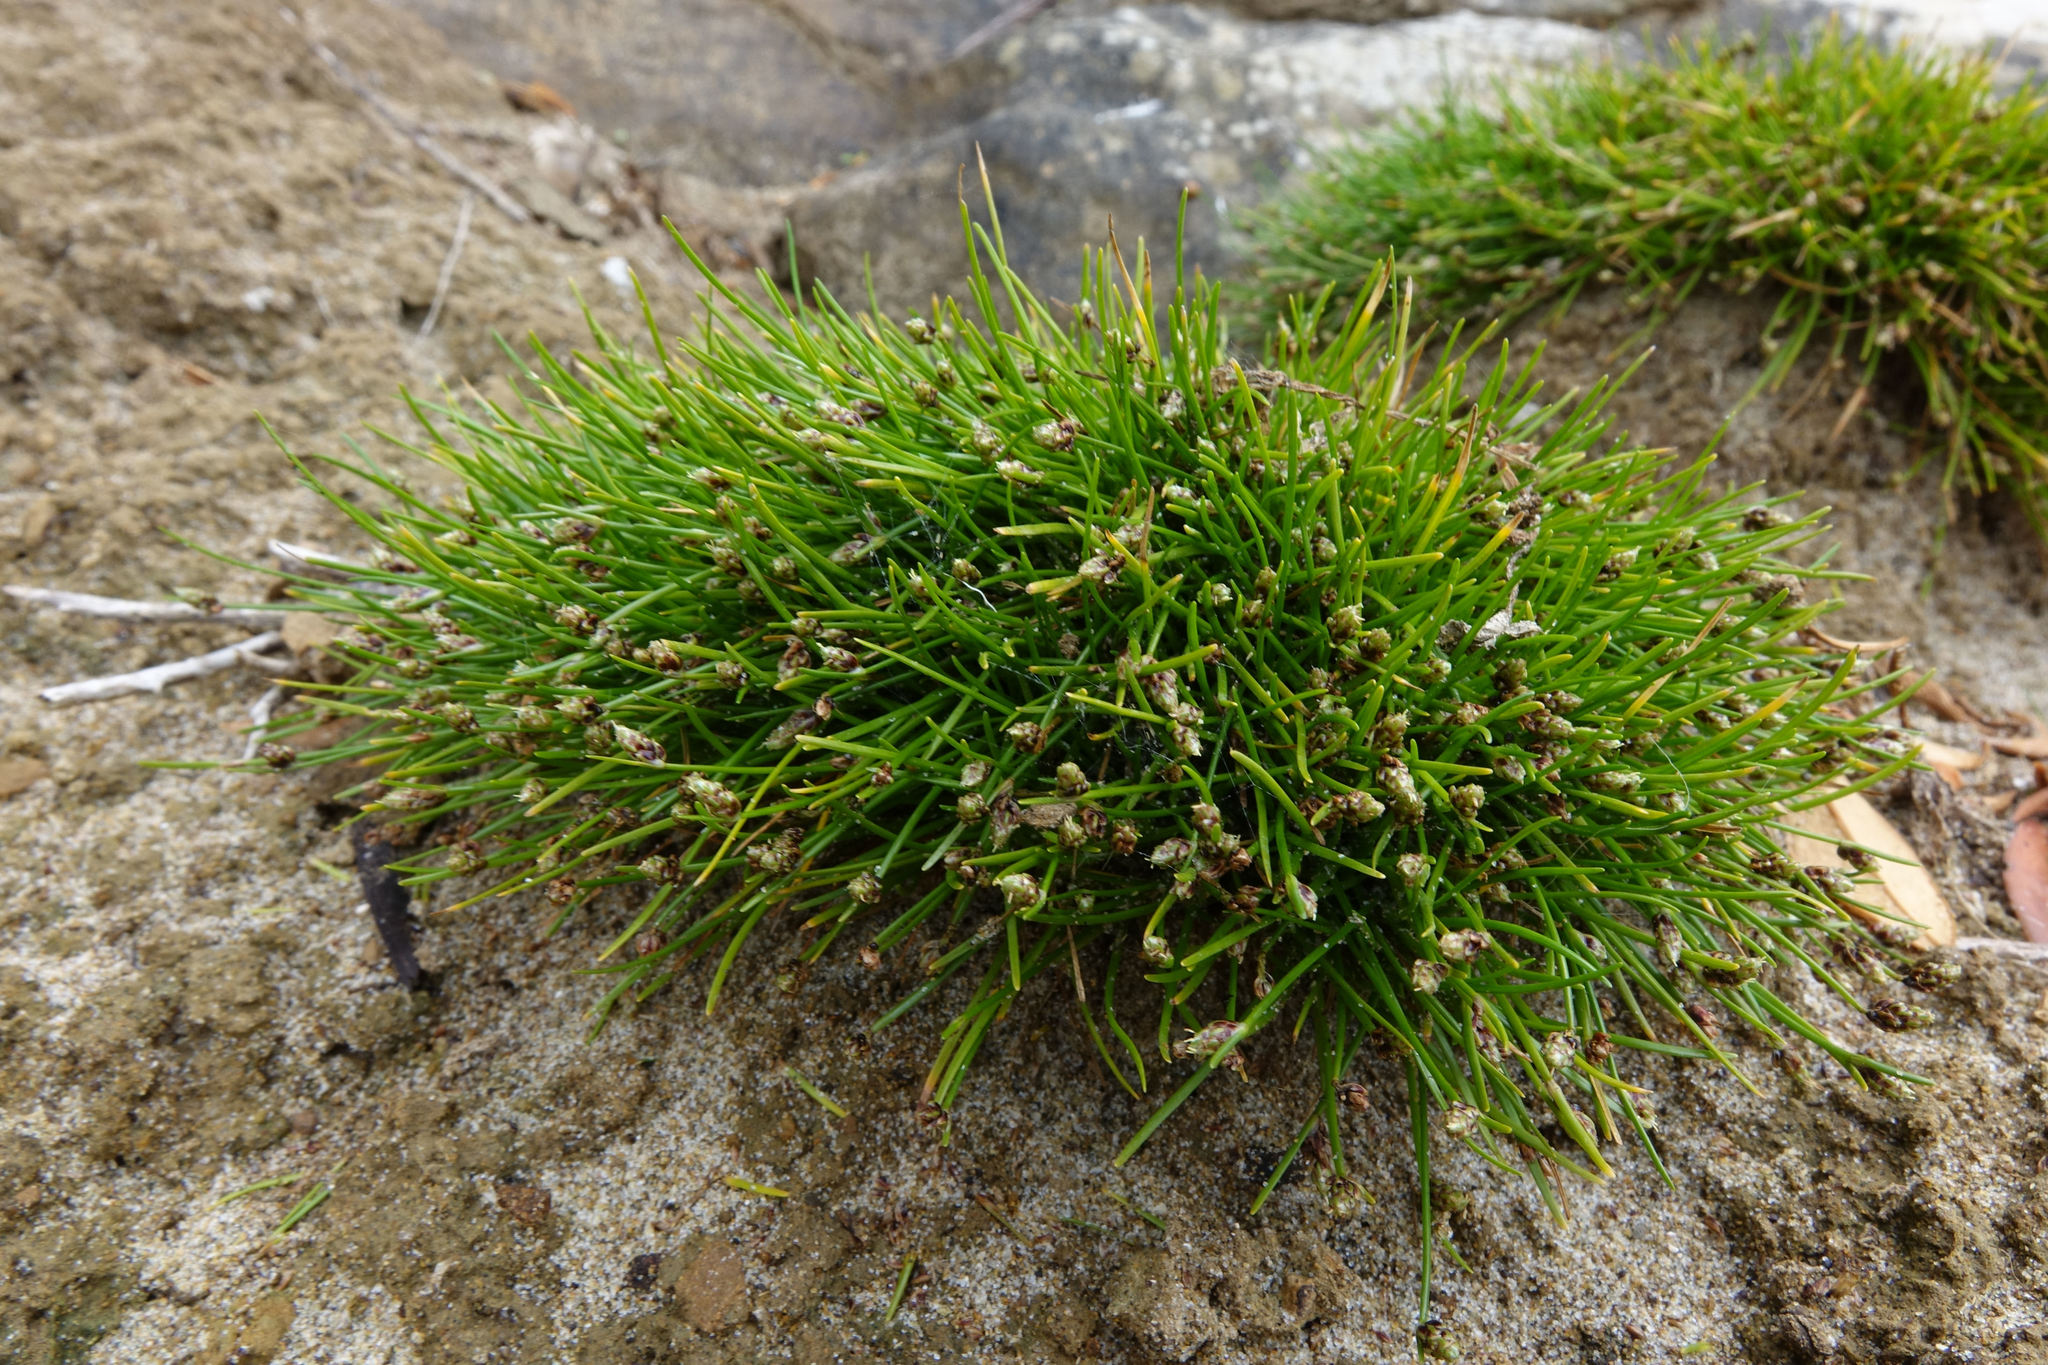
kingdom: Plantae
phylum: Tracheophyta
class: Liliopsida
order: Poales
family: Cyperaceae
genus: Isolepis
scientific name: Isolepis cernua
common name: Slender club-rush
